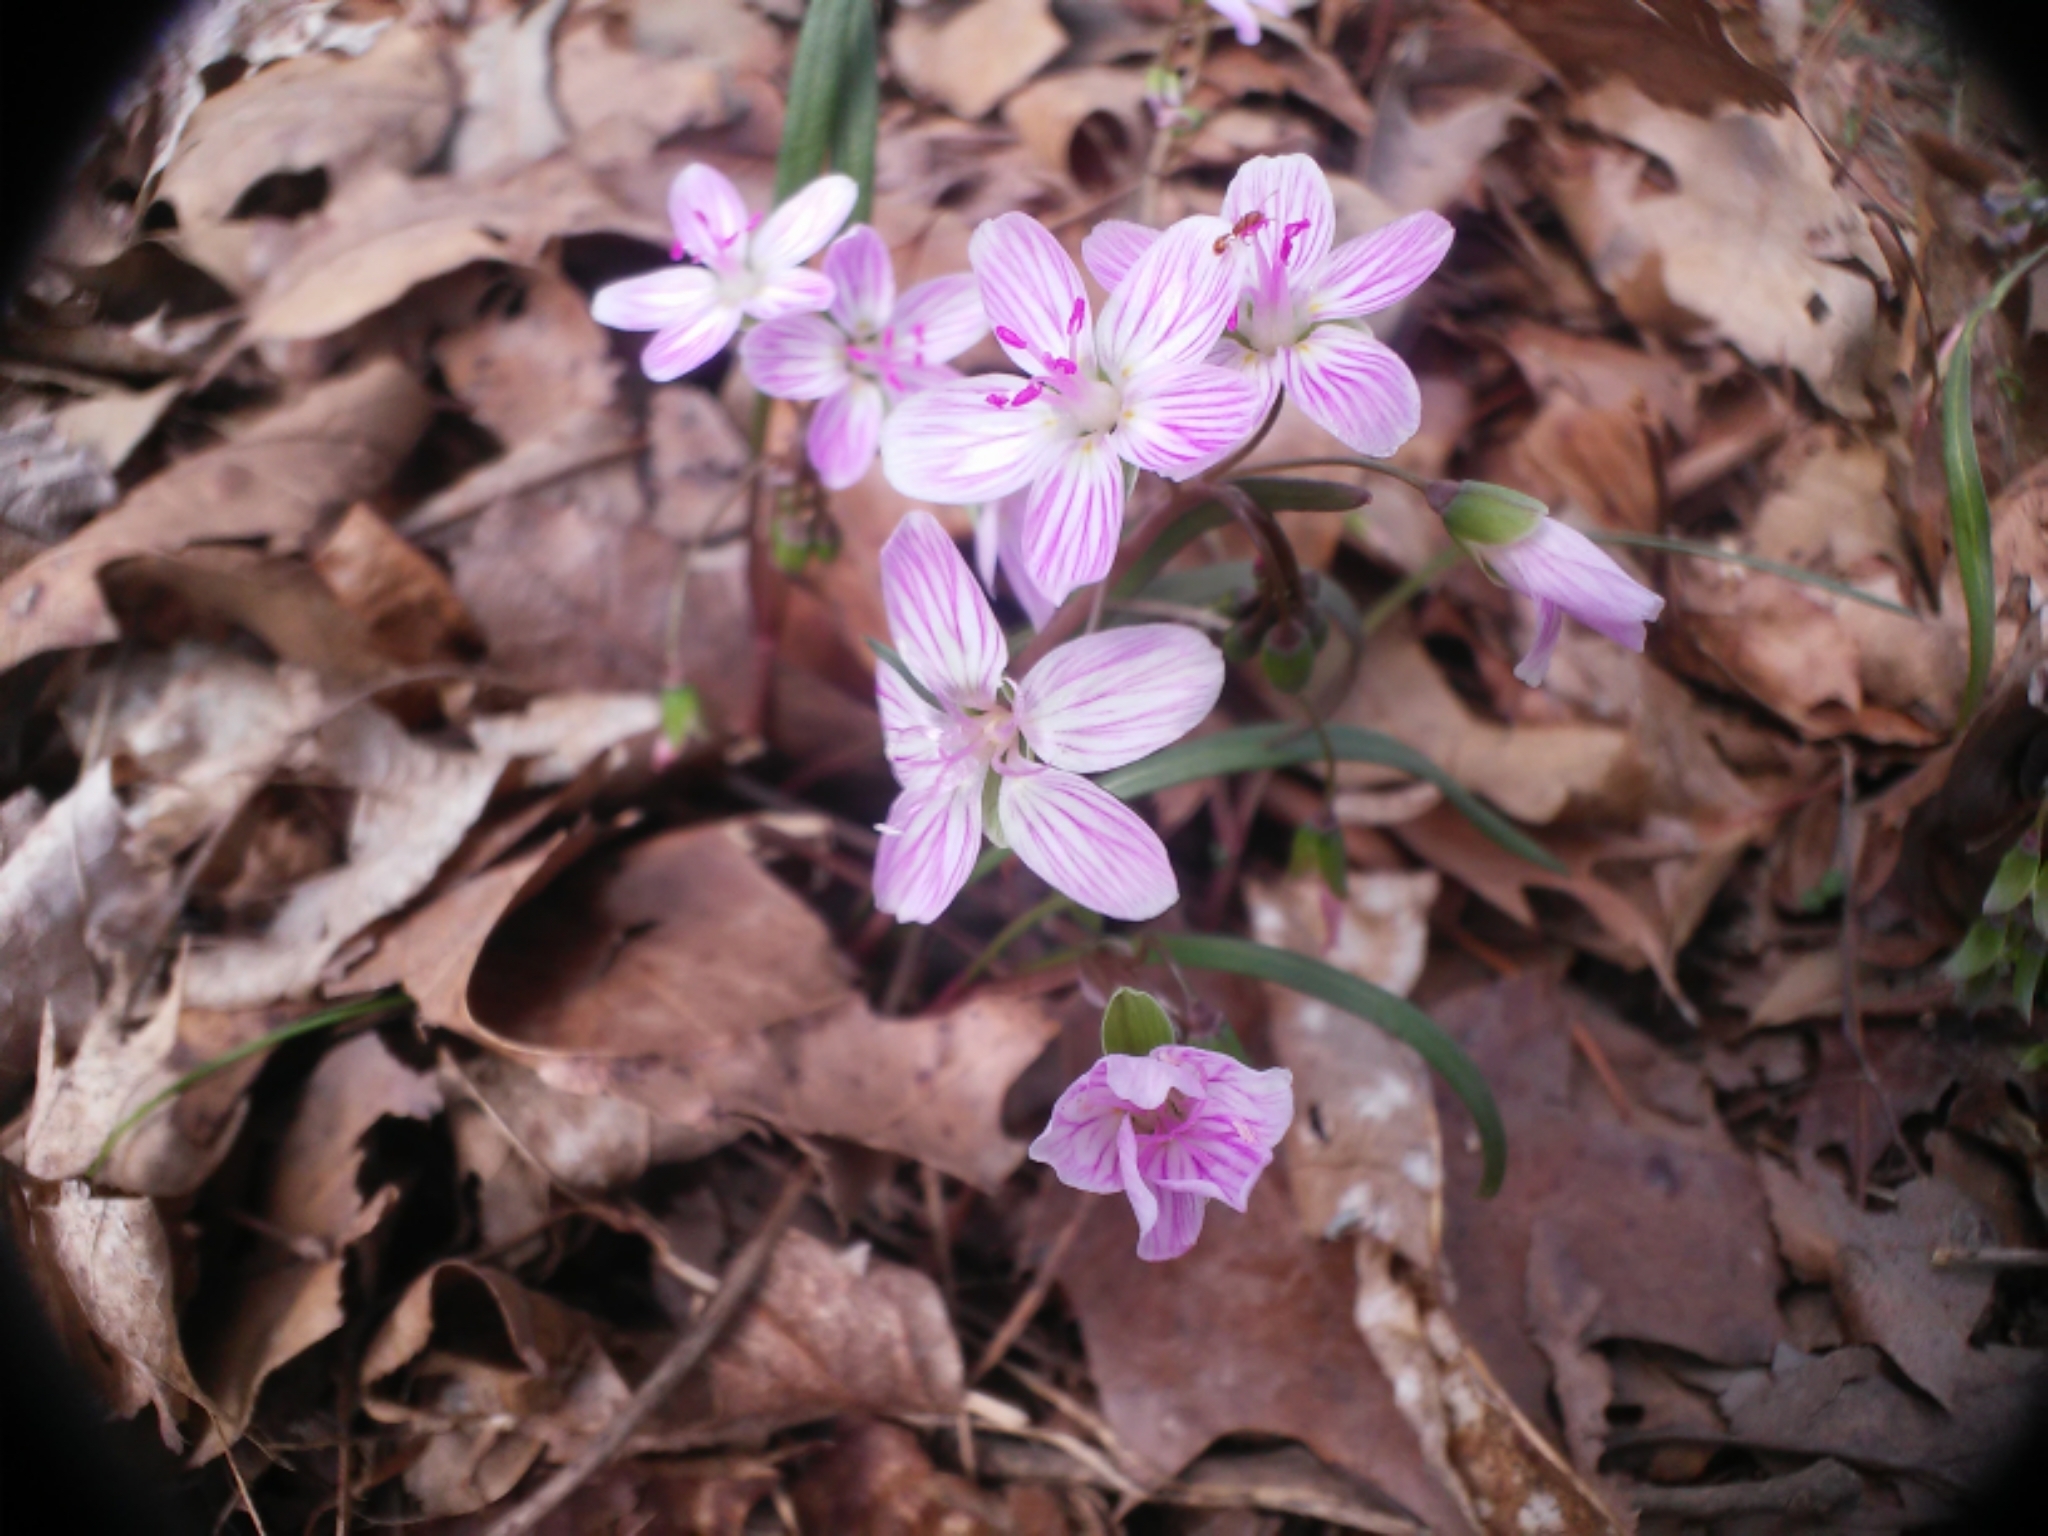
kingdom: Plantae
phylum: Tracheophyta
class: Magnoliopsida
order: Caryophyllales
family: Montiaceae
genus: Claytonia
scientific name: Claytonia virginica
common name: Virginia springbeauty
